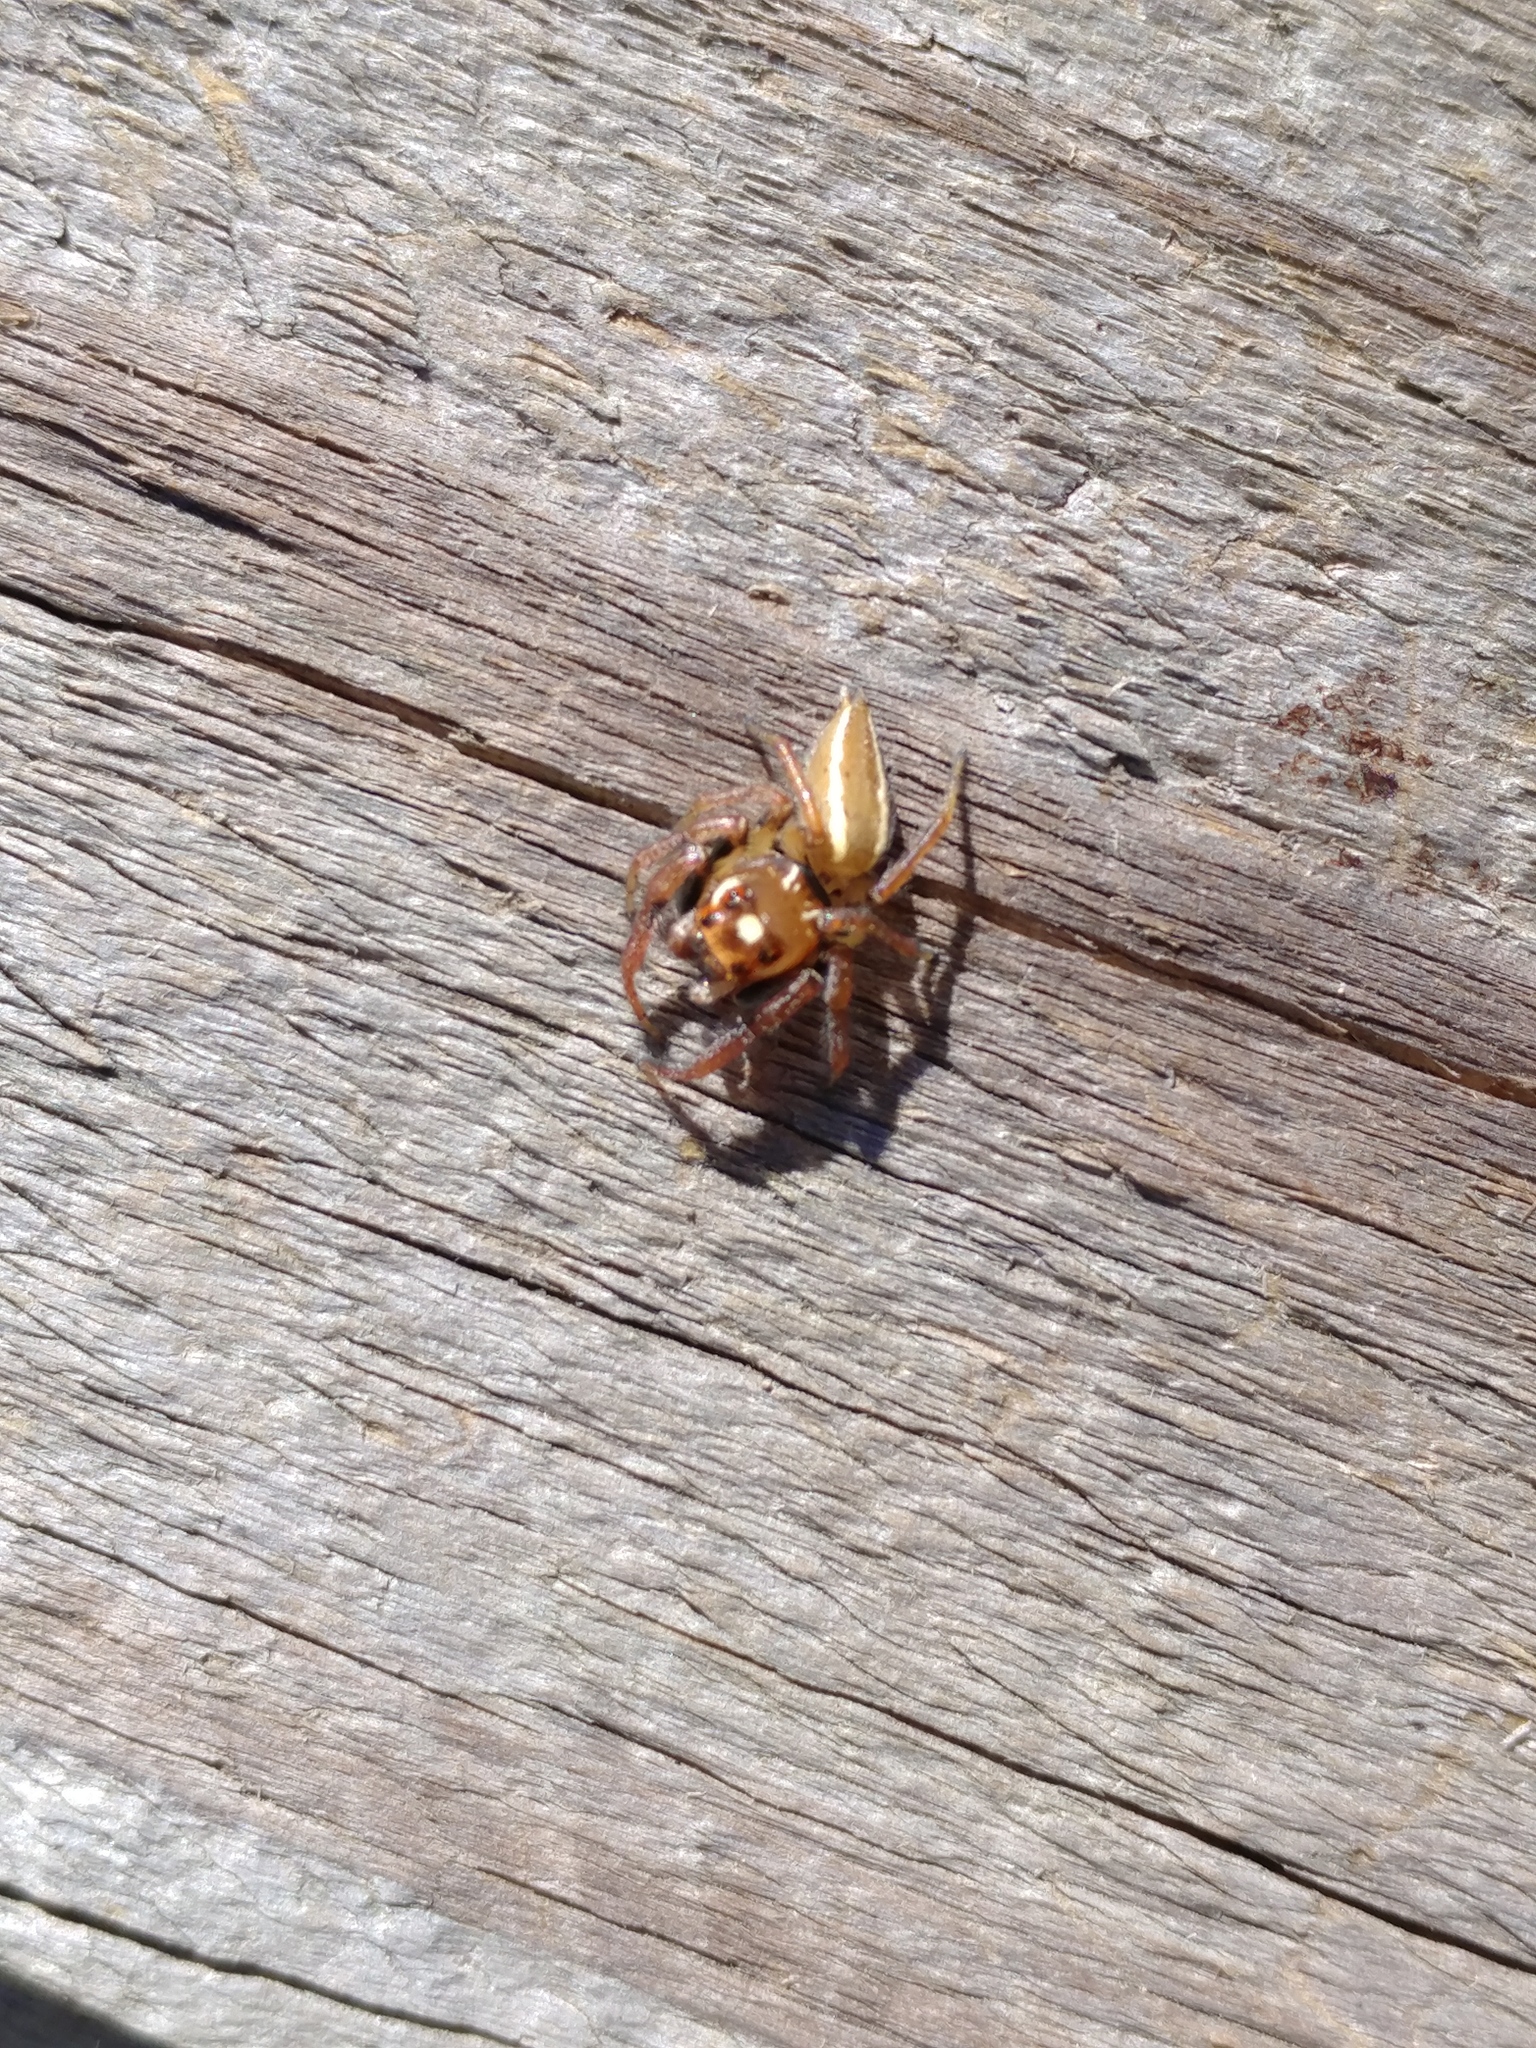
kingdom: Animalia
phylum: Arthropoda
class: Arachnida
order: Araneae
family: Salticidae
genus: Colonus
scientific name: Colonus sylvanus
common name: Jumping spiders
